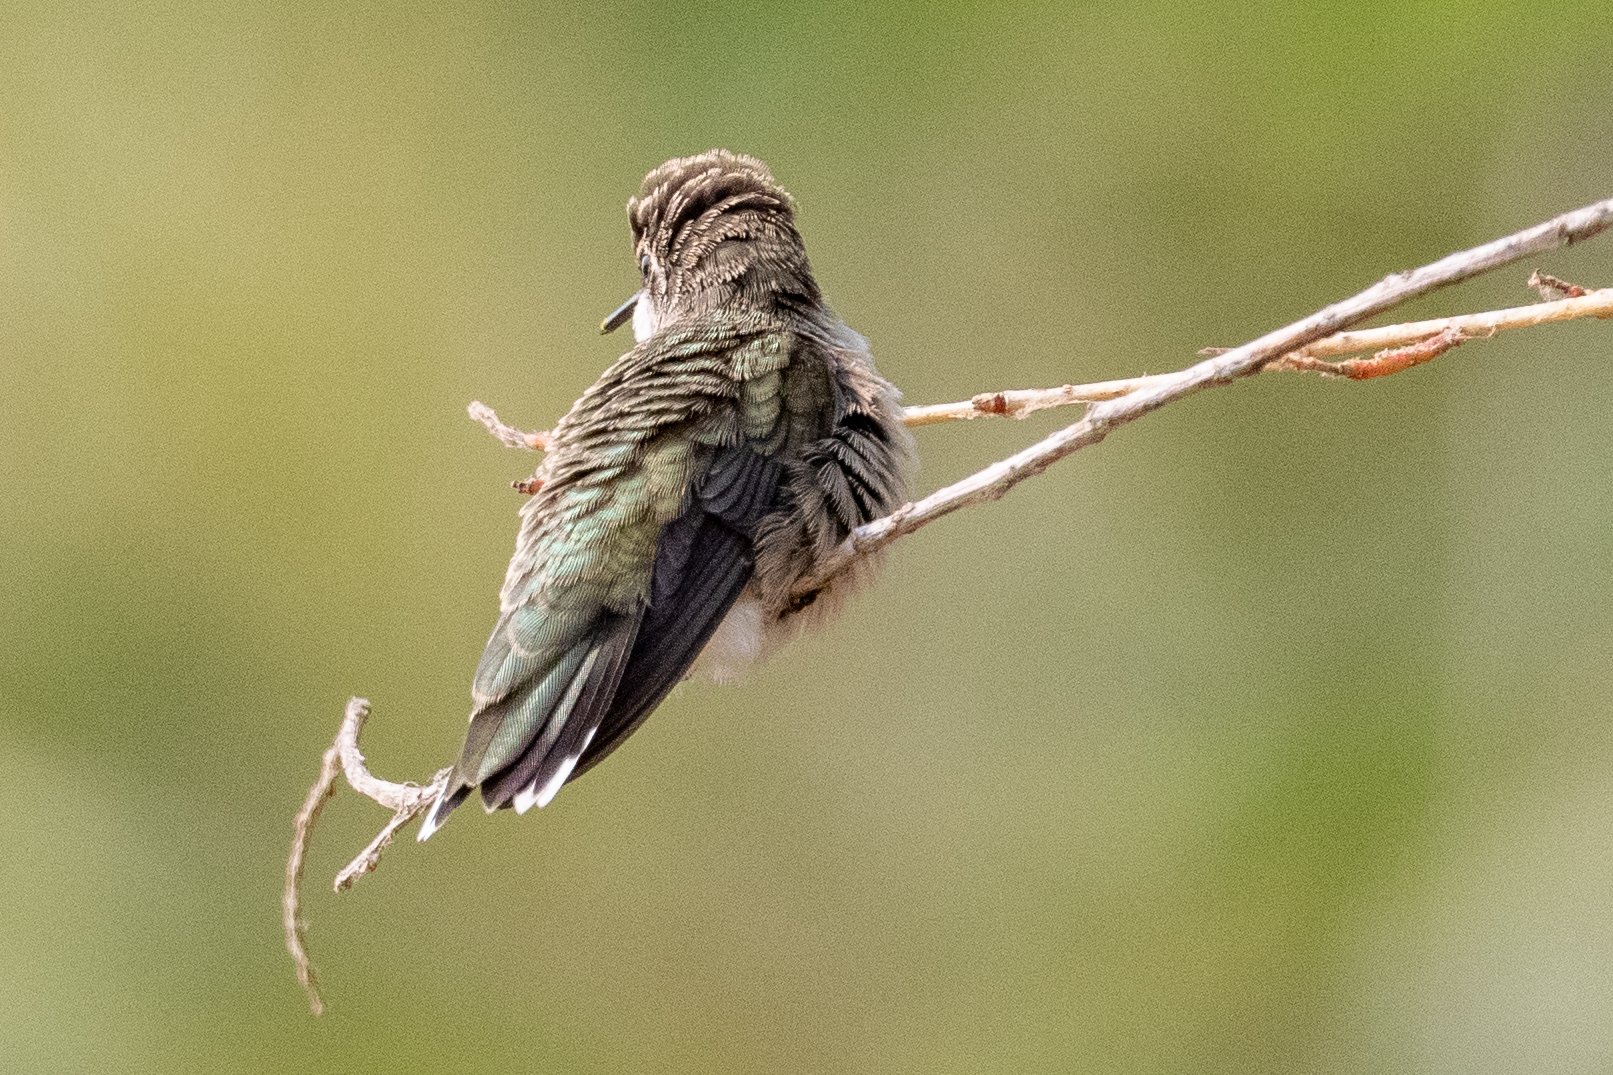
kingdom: Animalia
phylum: Chordata
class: Aves
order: Apodiformes
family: Trochilidae
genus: Archilochus
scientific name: Archilochus alexandri
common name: Black-chinned hummingbird
